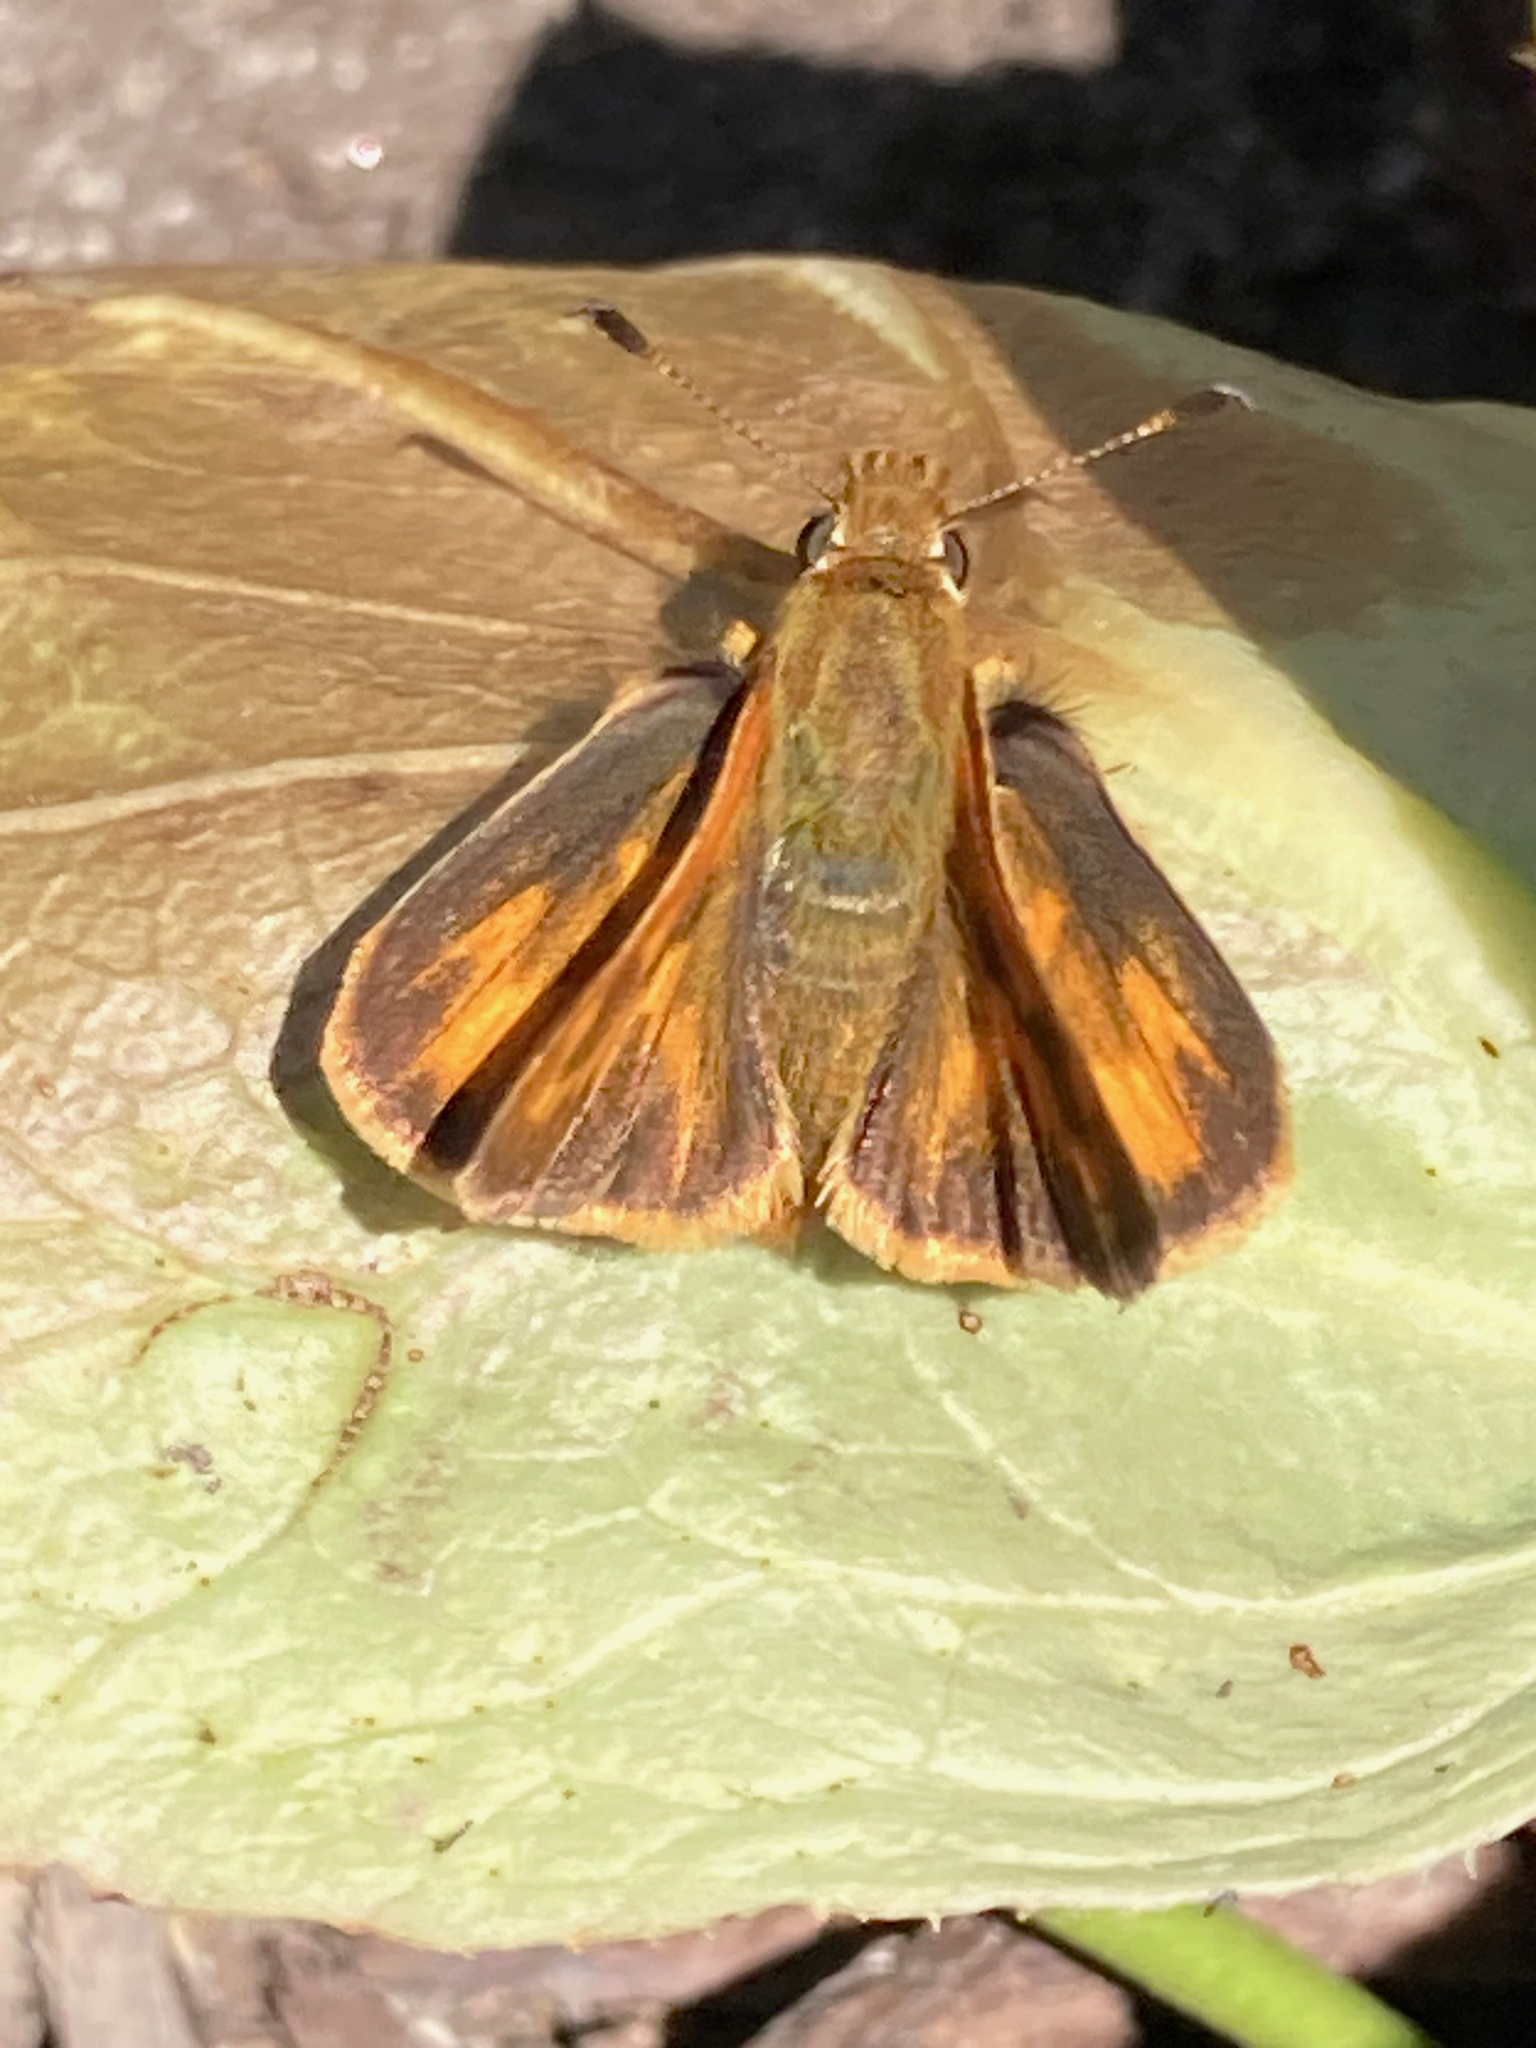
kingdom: Animalia
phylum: Arthropoda
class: Insecta
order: Lepidoptera
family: Hesperiidae
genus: Ochlodes
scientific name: Ochlodes sylvanoides
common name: Woodland skipper
